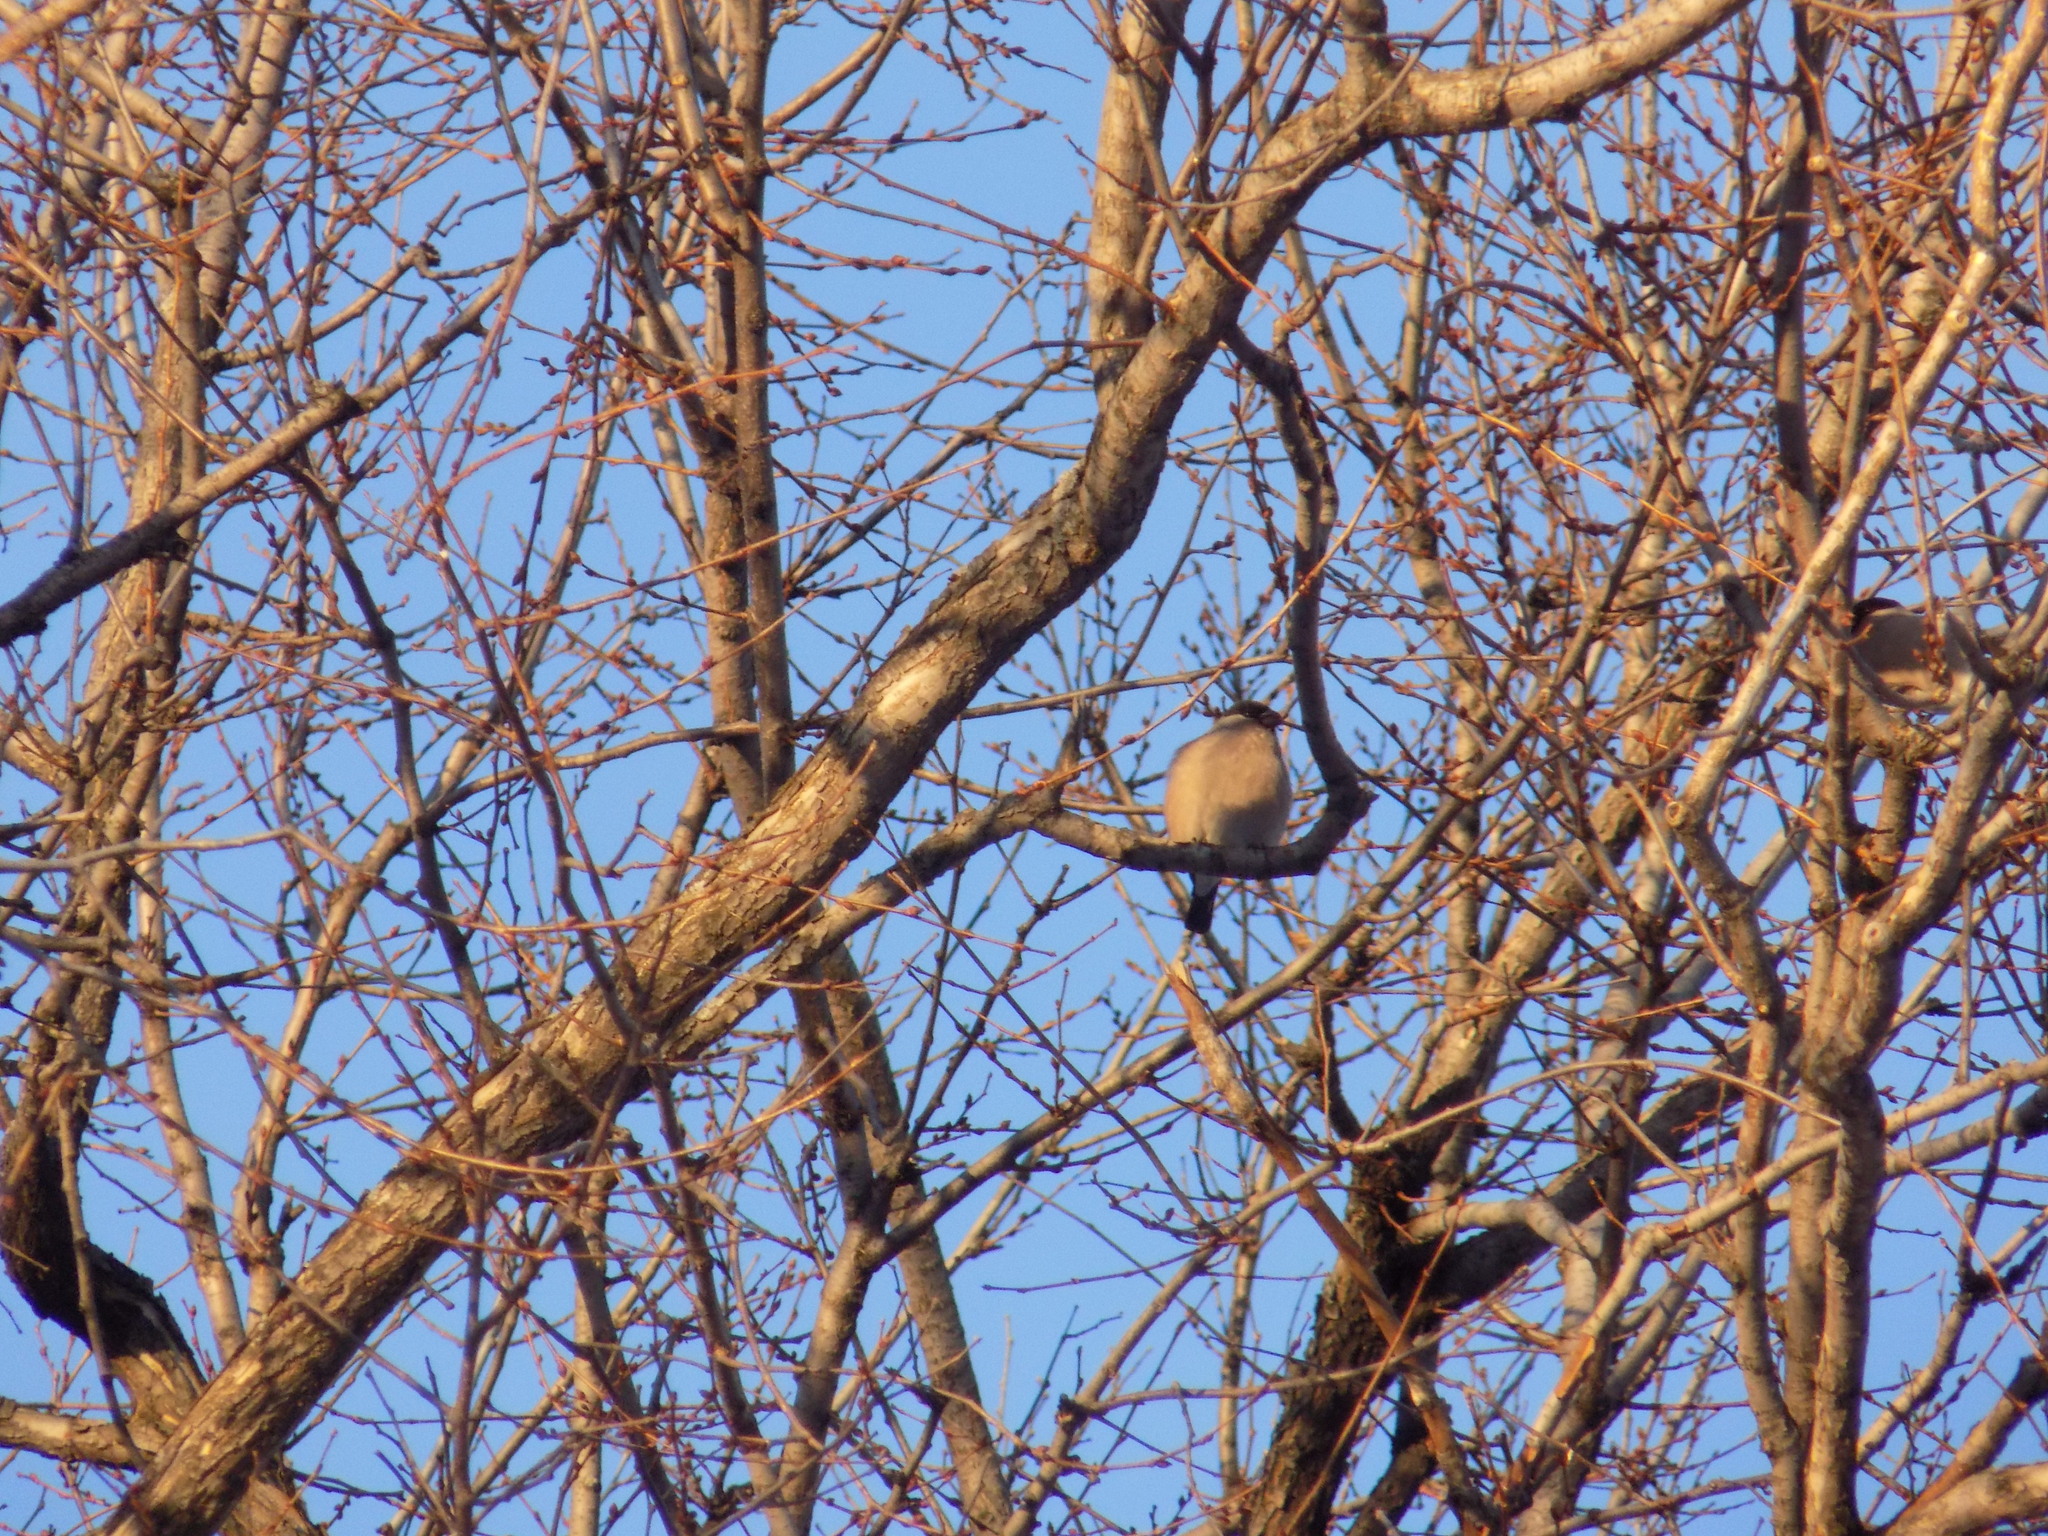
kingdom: Animalia
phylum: Chordata
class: Aves
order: Passeriformes
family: Fringillidae
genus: Pyrrhula
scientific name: Pyrrhula pyrrhula
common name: Eurasian bullfinch
